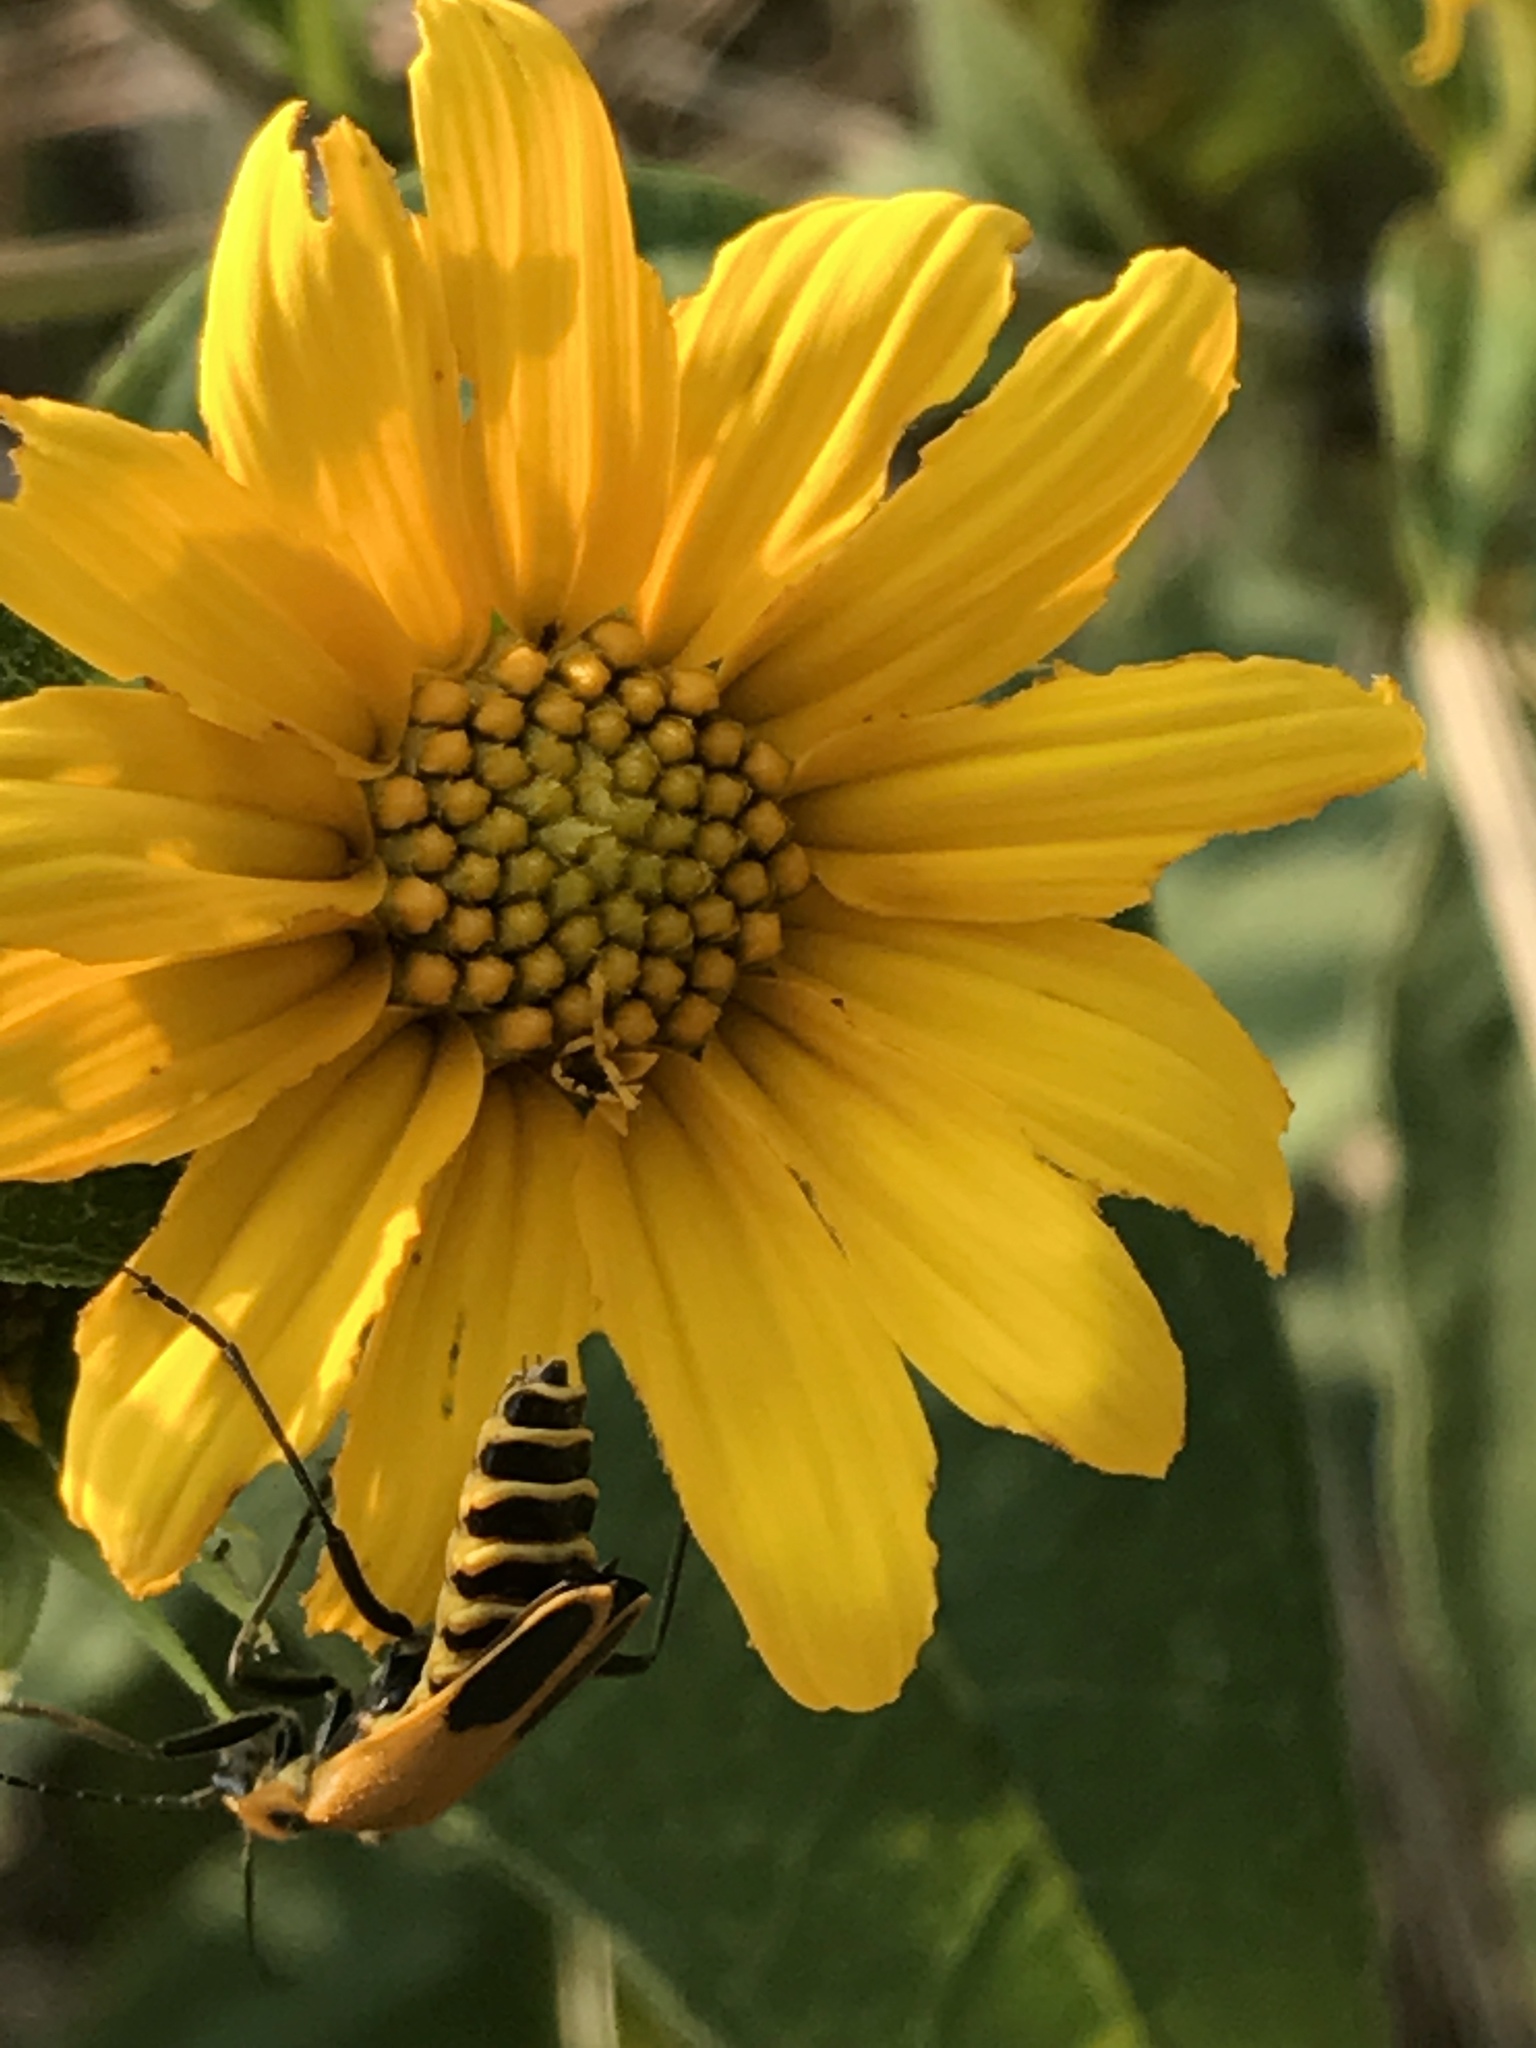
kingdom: Animalia
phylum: Arthropoda
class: Insecta
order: Coleoptera
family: Cantharidae
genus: Chauliognathus
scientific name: Chauliognathus pensylvanicus
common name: Goldenrod soldier beetle
